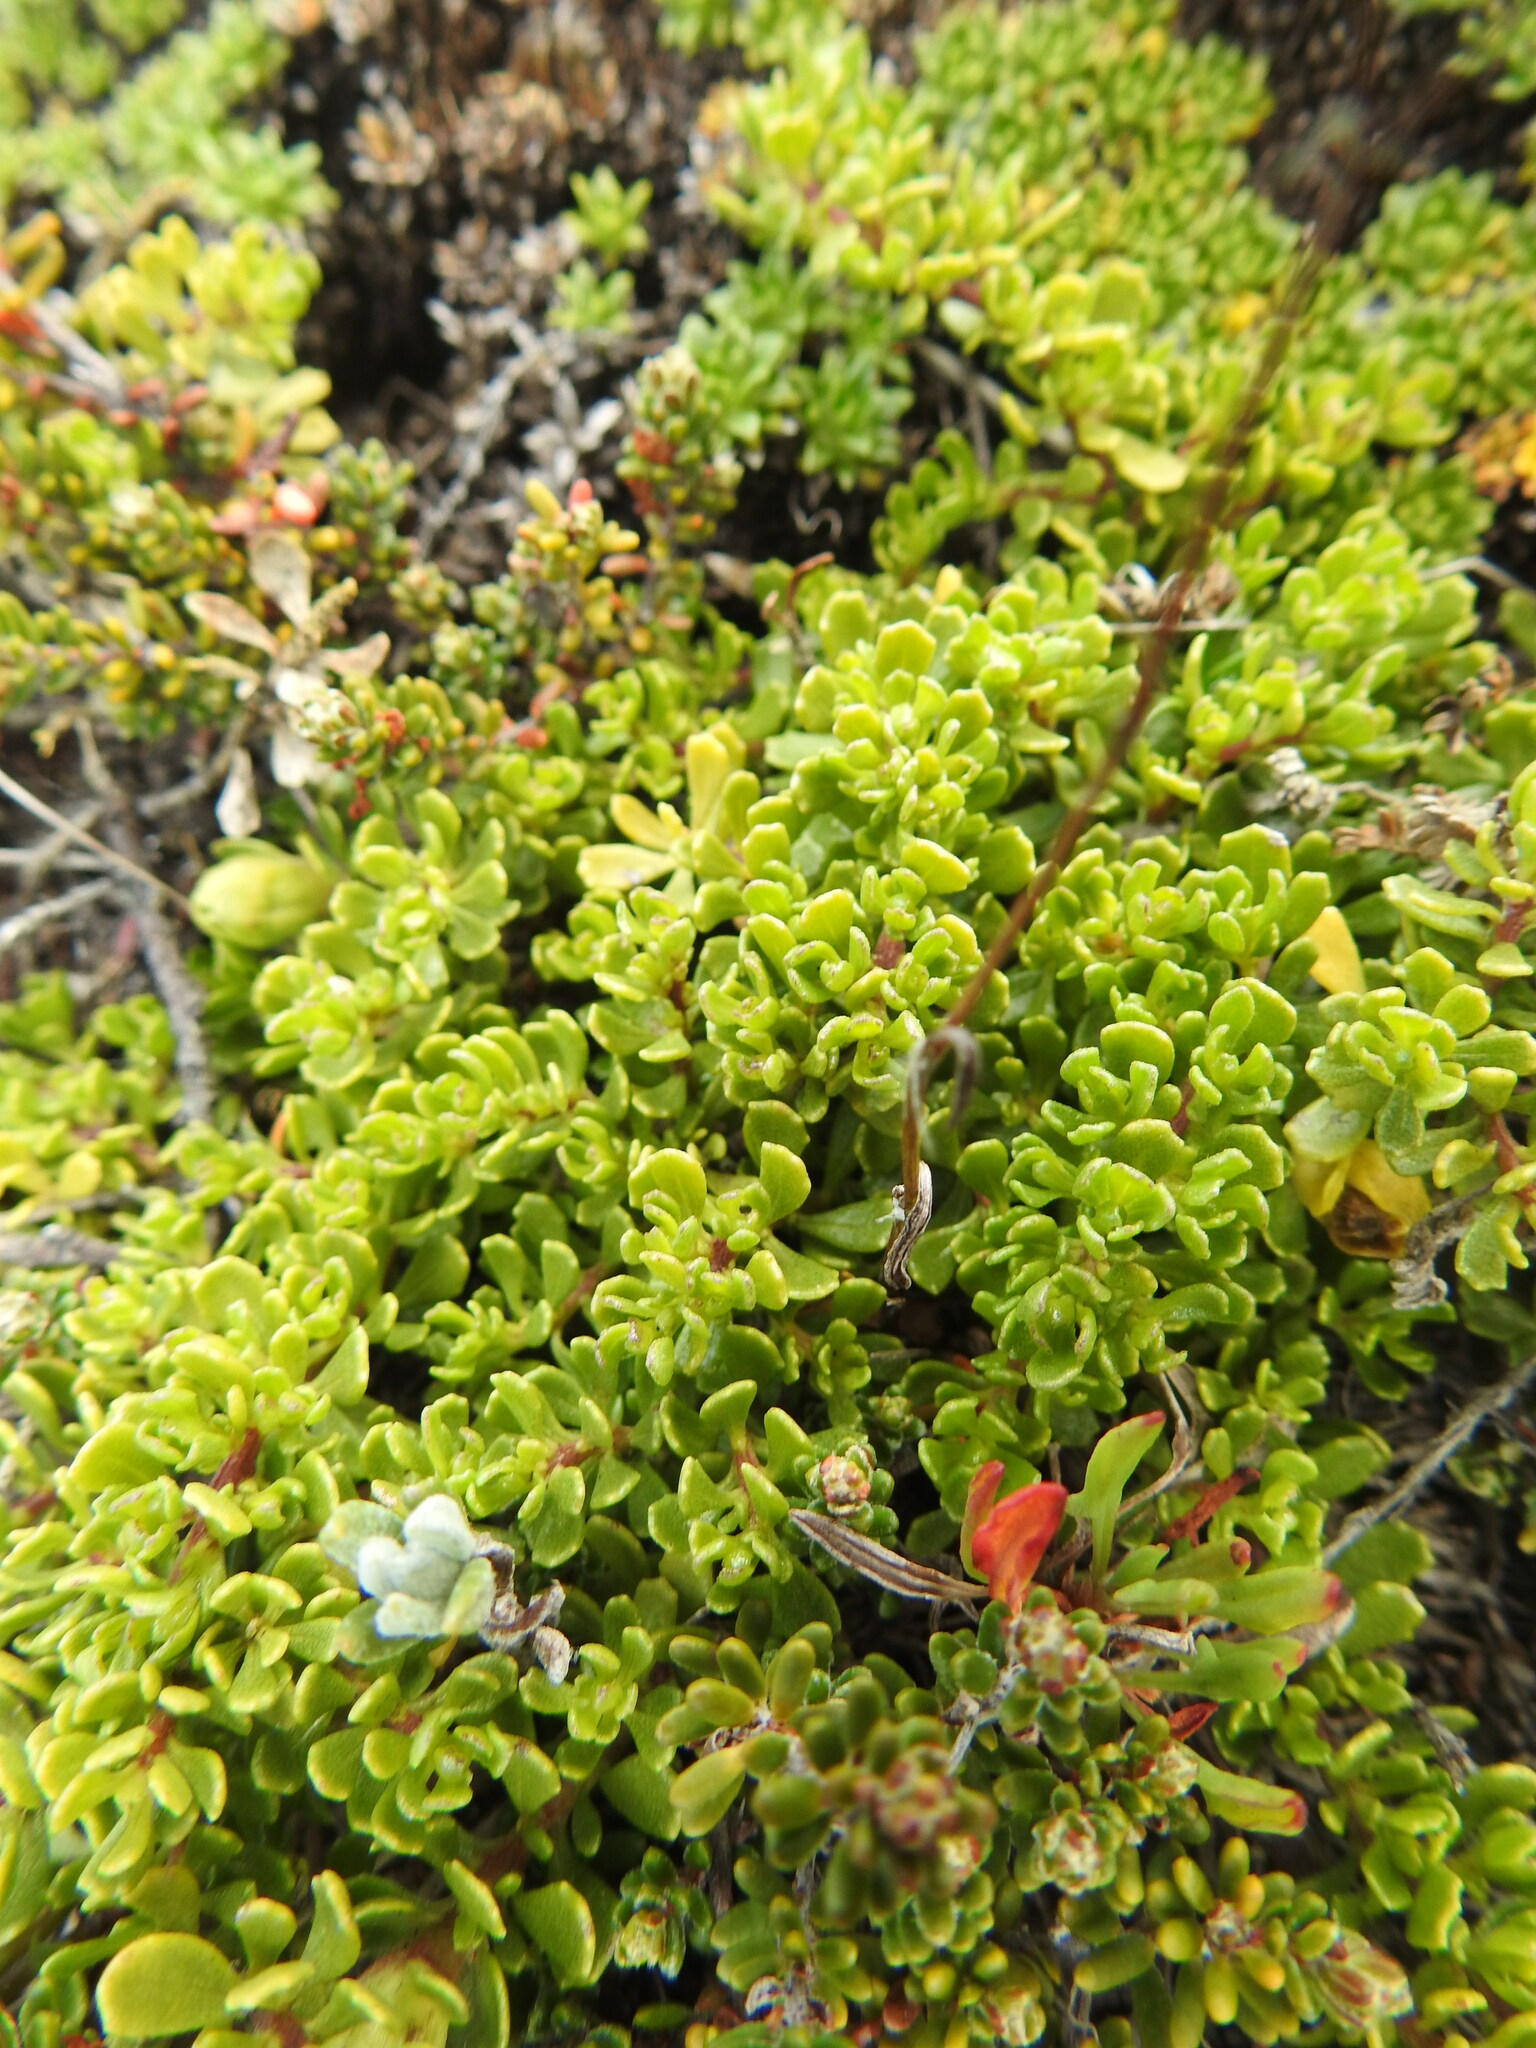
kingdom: Plantae
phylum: Tracheophyta
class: Magnoliopsida
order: Asterales
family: Asteraceae
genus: Baccharis
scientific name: Baccharis magellanica
